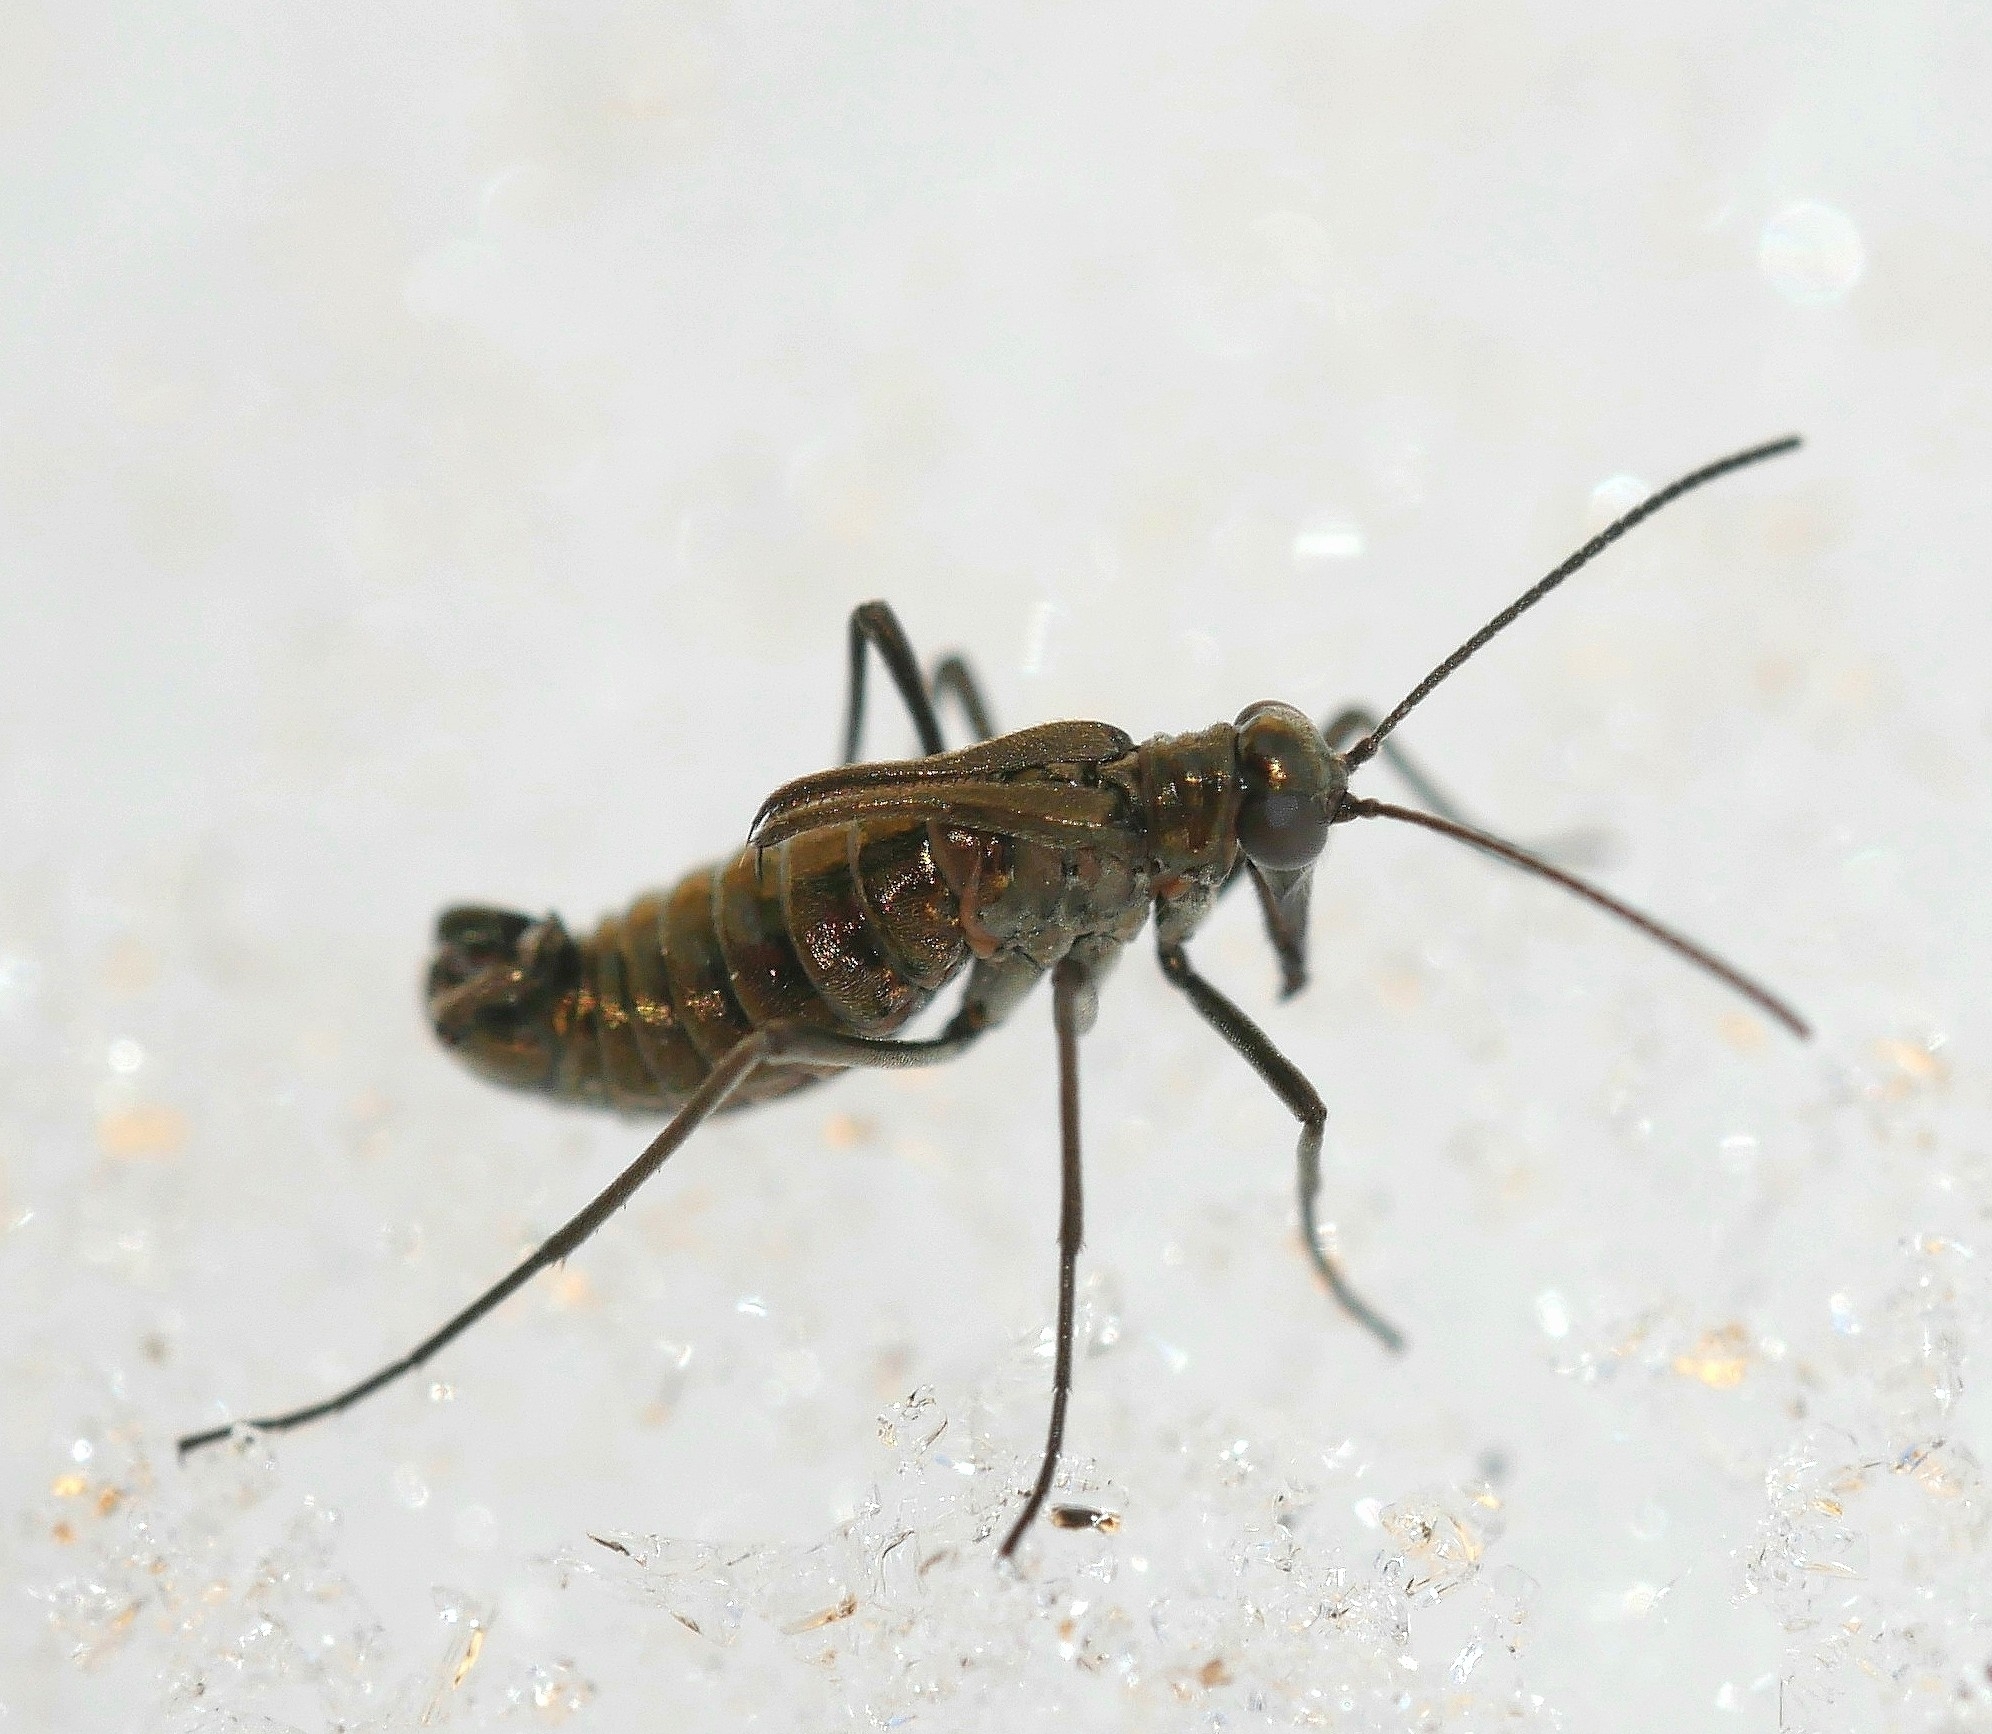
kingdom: Animalia
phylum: Arthropoda
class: Insecta
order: Mecoptera
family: Boreidae
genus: Boreus
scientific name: Boreus coloradensis
